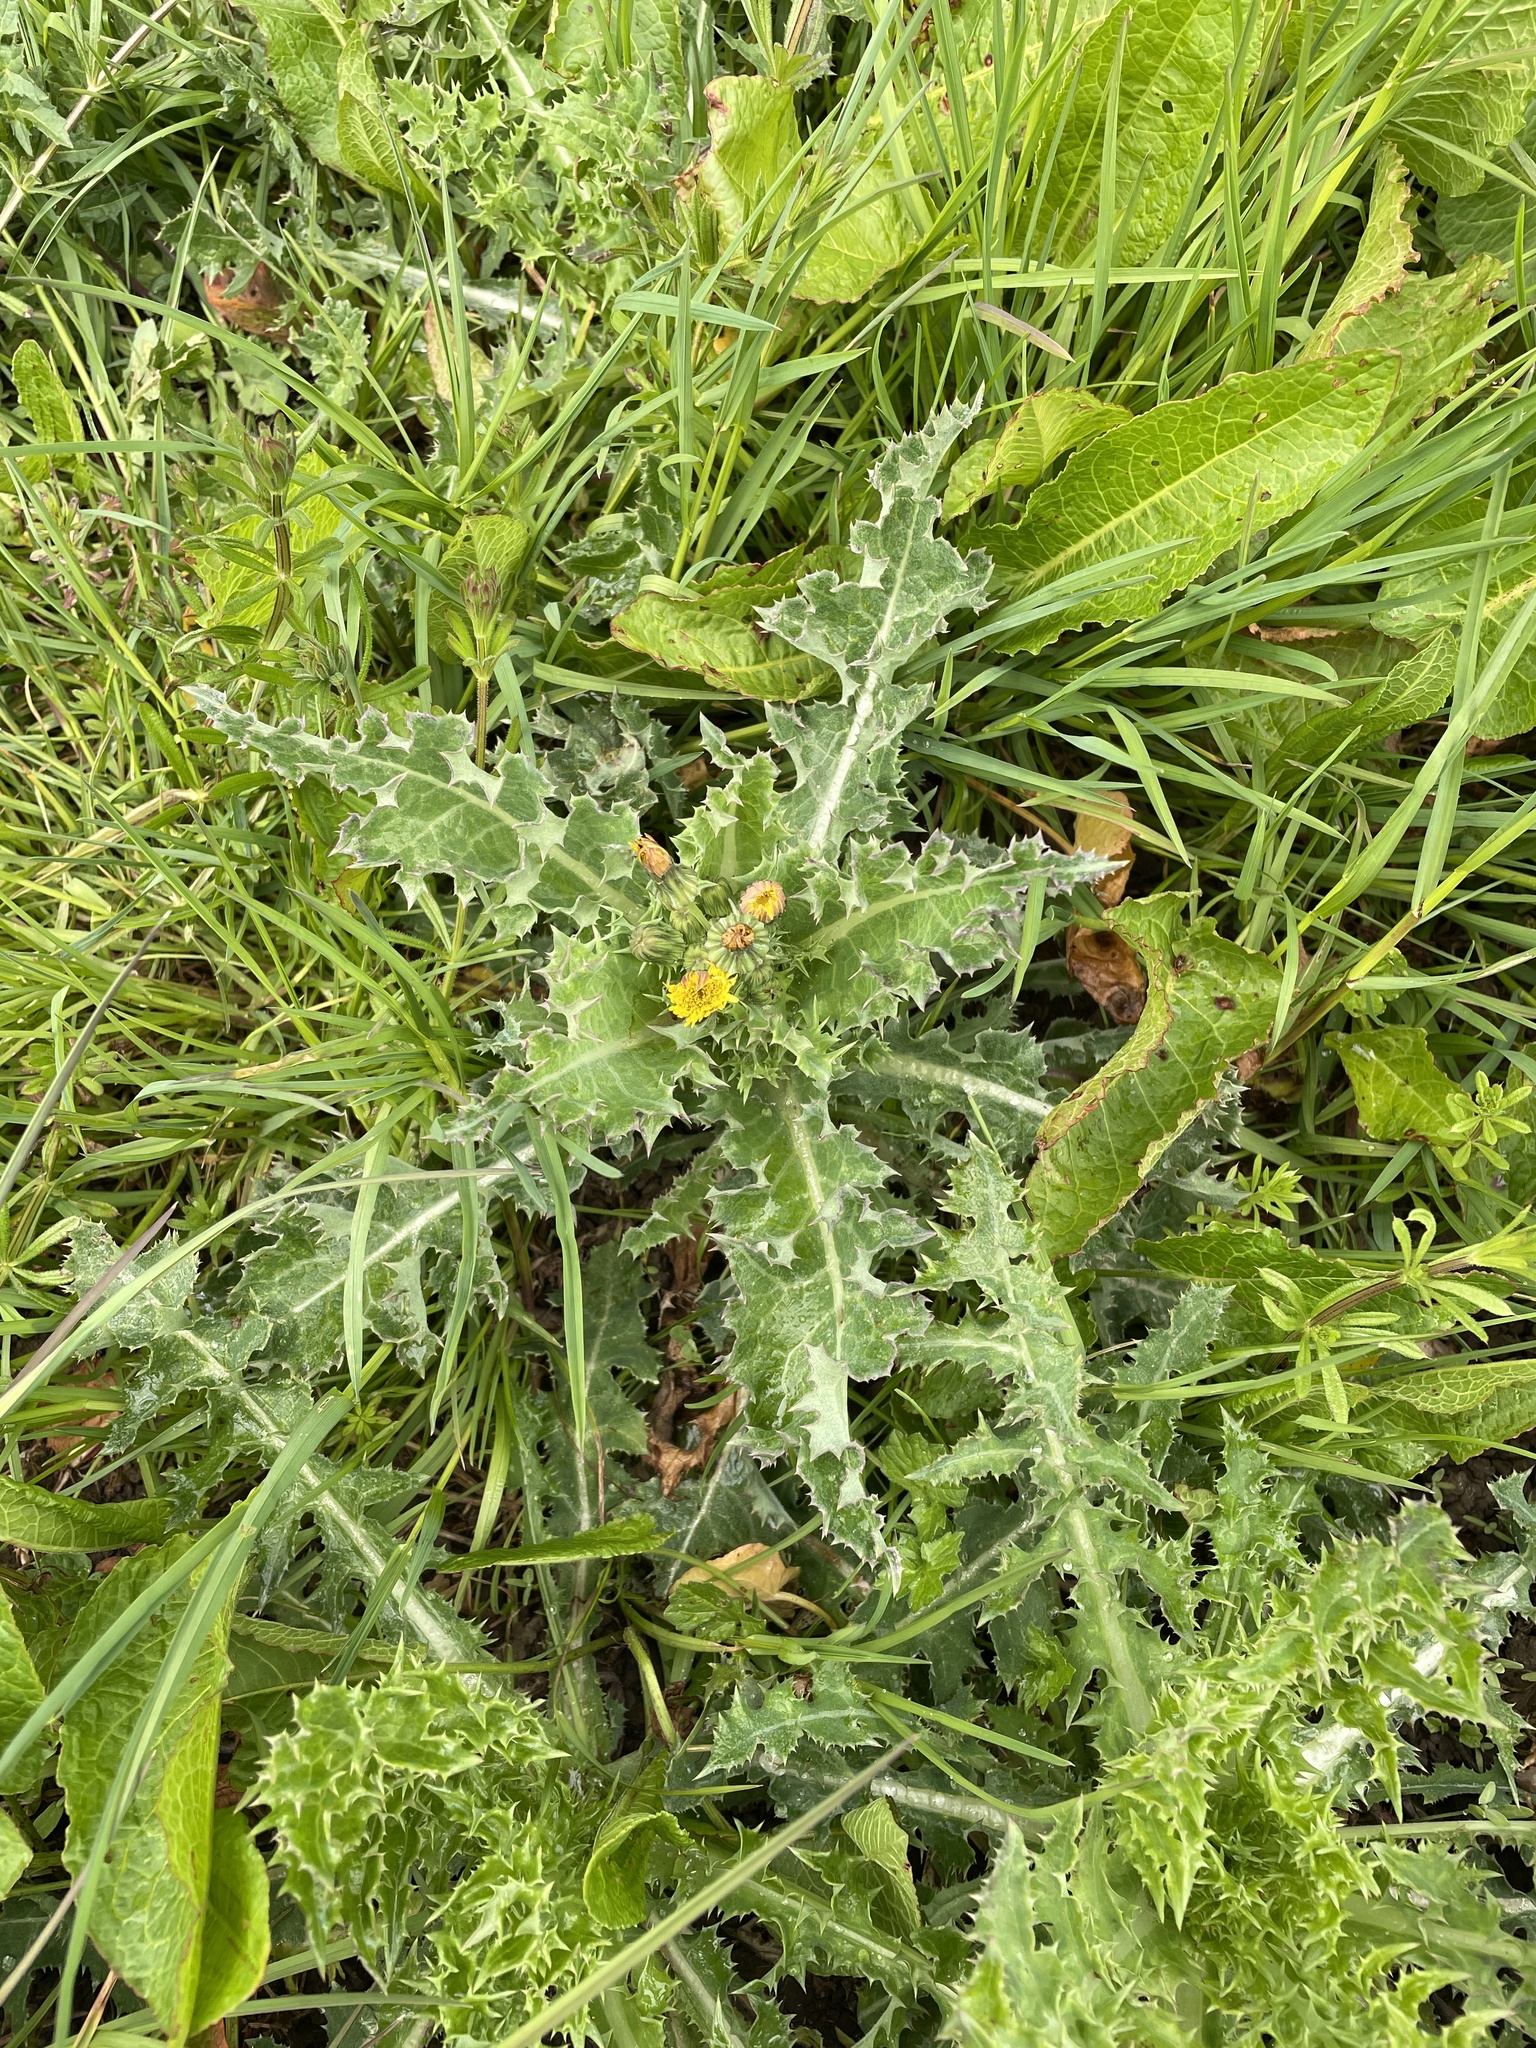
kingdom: Plantae
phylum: Tracheophyta
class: Magnoliopsida
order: Asterales
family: Asteraceae
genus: Sonchus
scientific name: Sonchus asper
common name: Prickly sow-thistle
